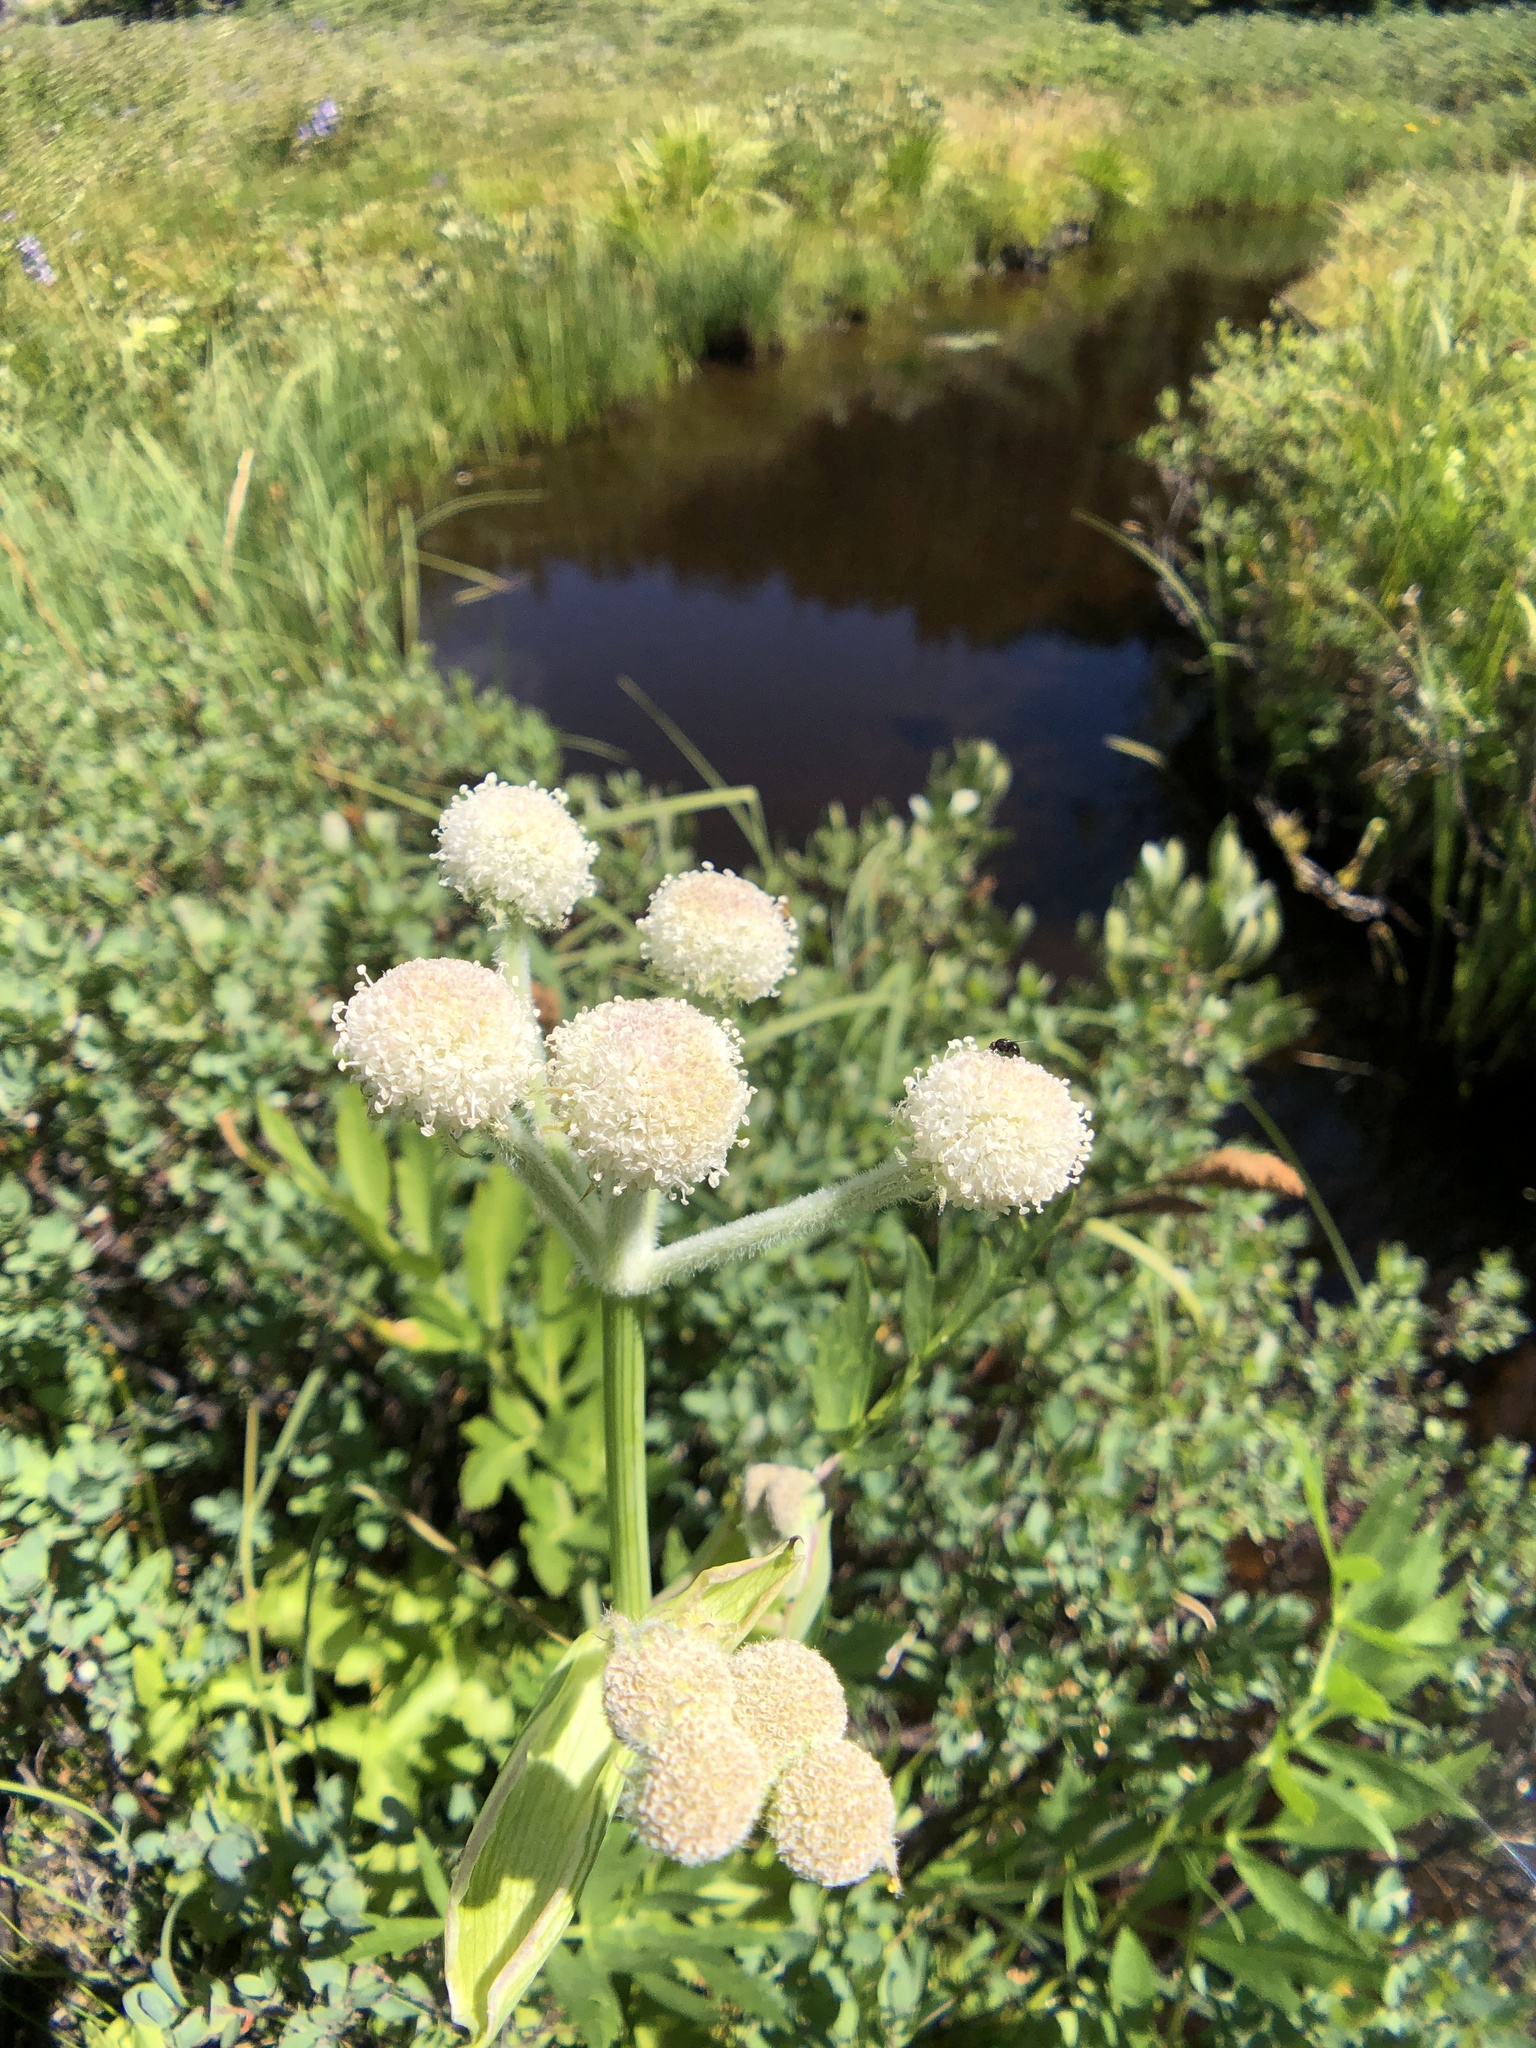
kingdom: Plantae
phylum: Tracheophyta
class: Magnoliopsida
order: Apiales
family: Apiaceae
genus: Angelica
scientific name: Angelica capitellata
